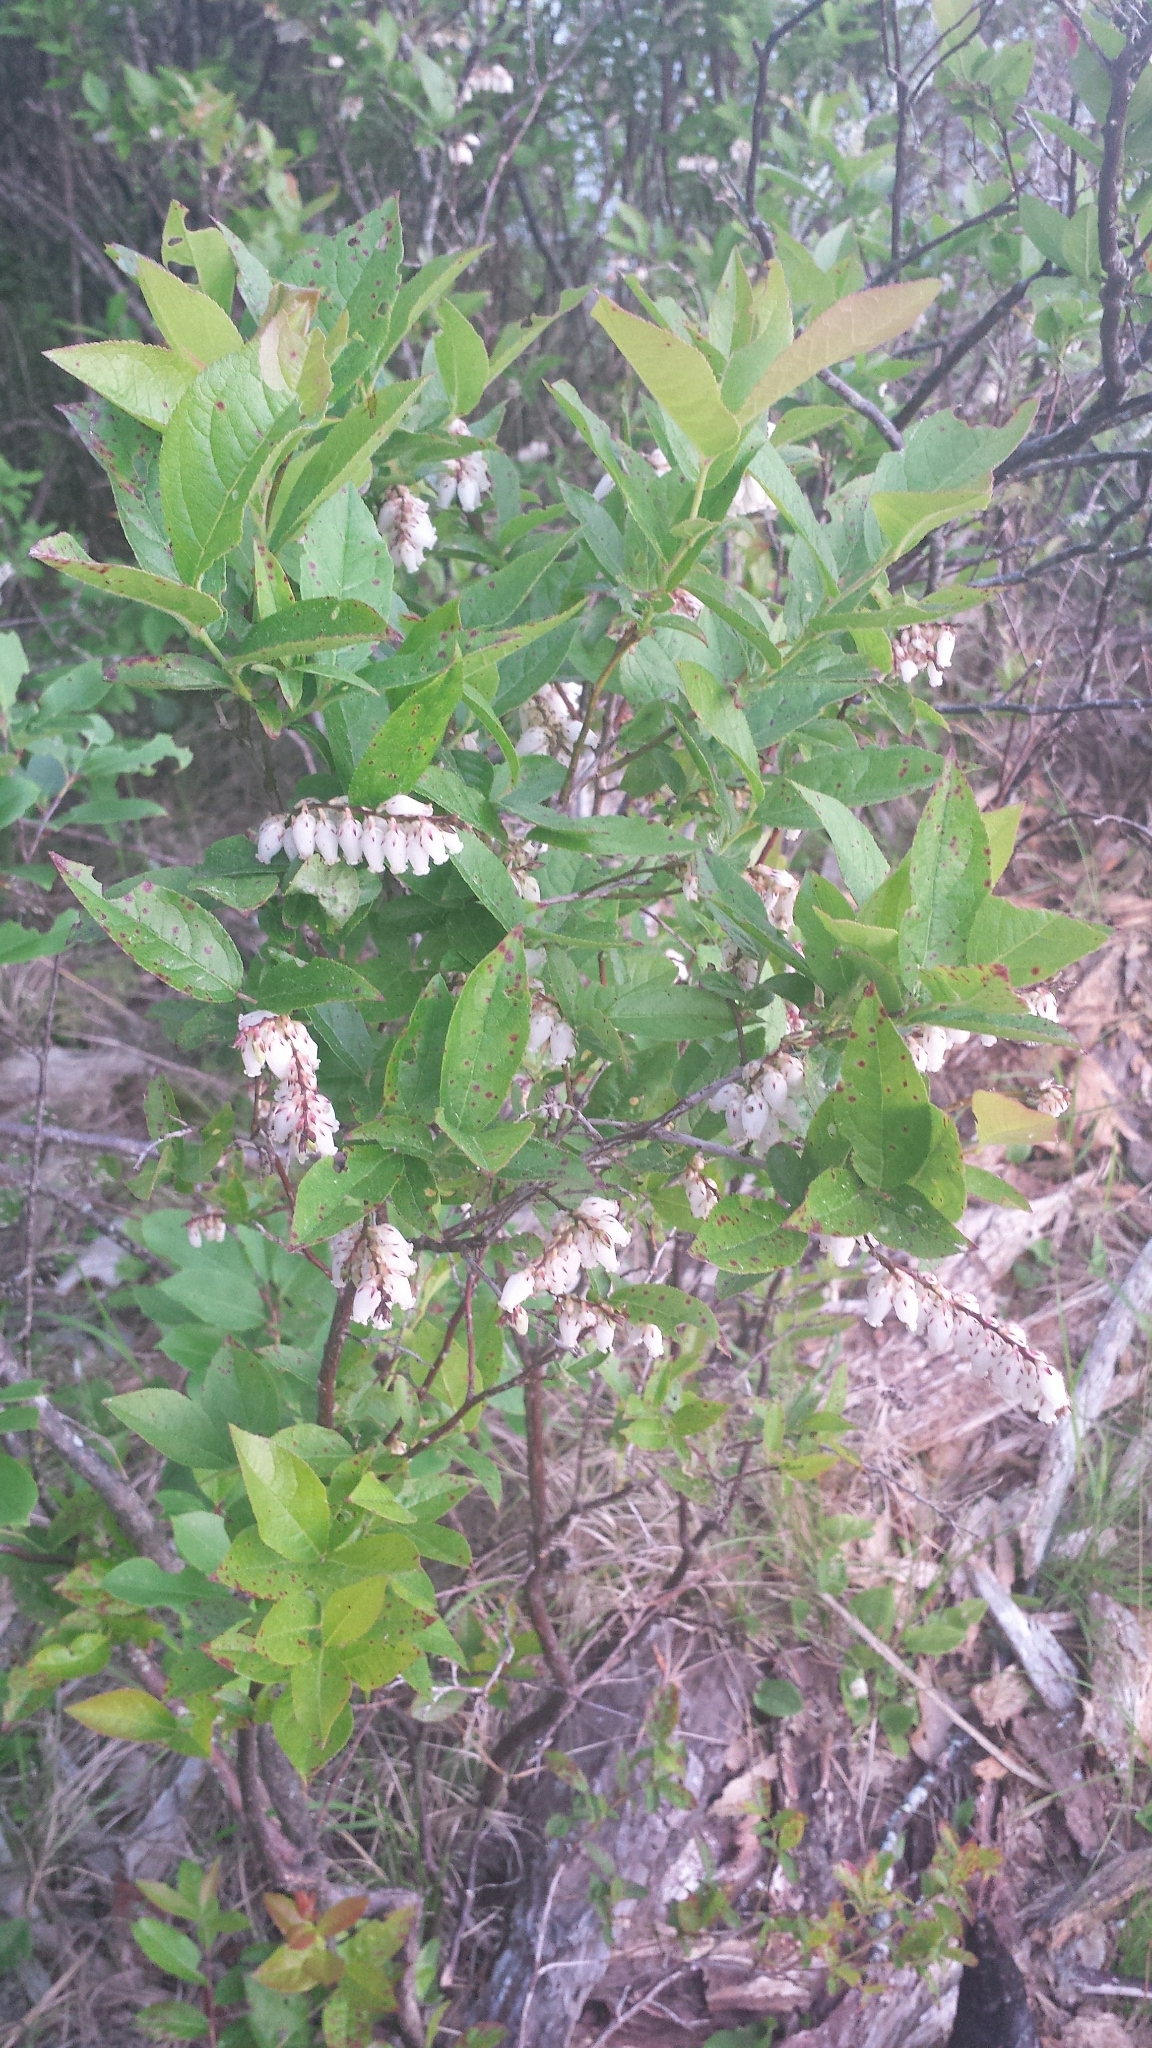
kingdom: Plantae
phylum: Tracheophyta
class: Magnoliopsida
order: Ericales
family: Ericaceae
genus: Vaccinium
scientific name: Vaccinium corymbosum
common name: Blueberry
